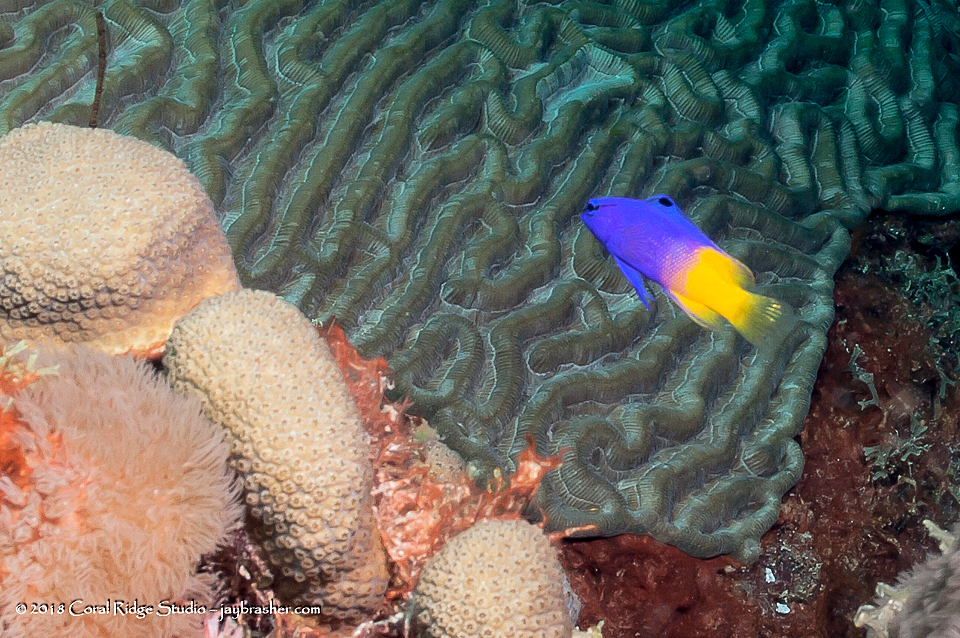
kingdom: Animalia
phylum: Chordata
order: Perciformes
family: Grammatidae
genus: Gramma
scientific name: Gramma loreto
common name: Fairy basslet
